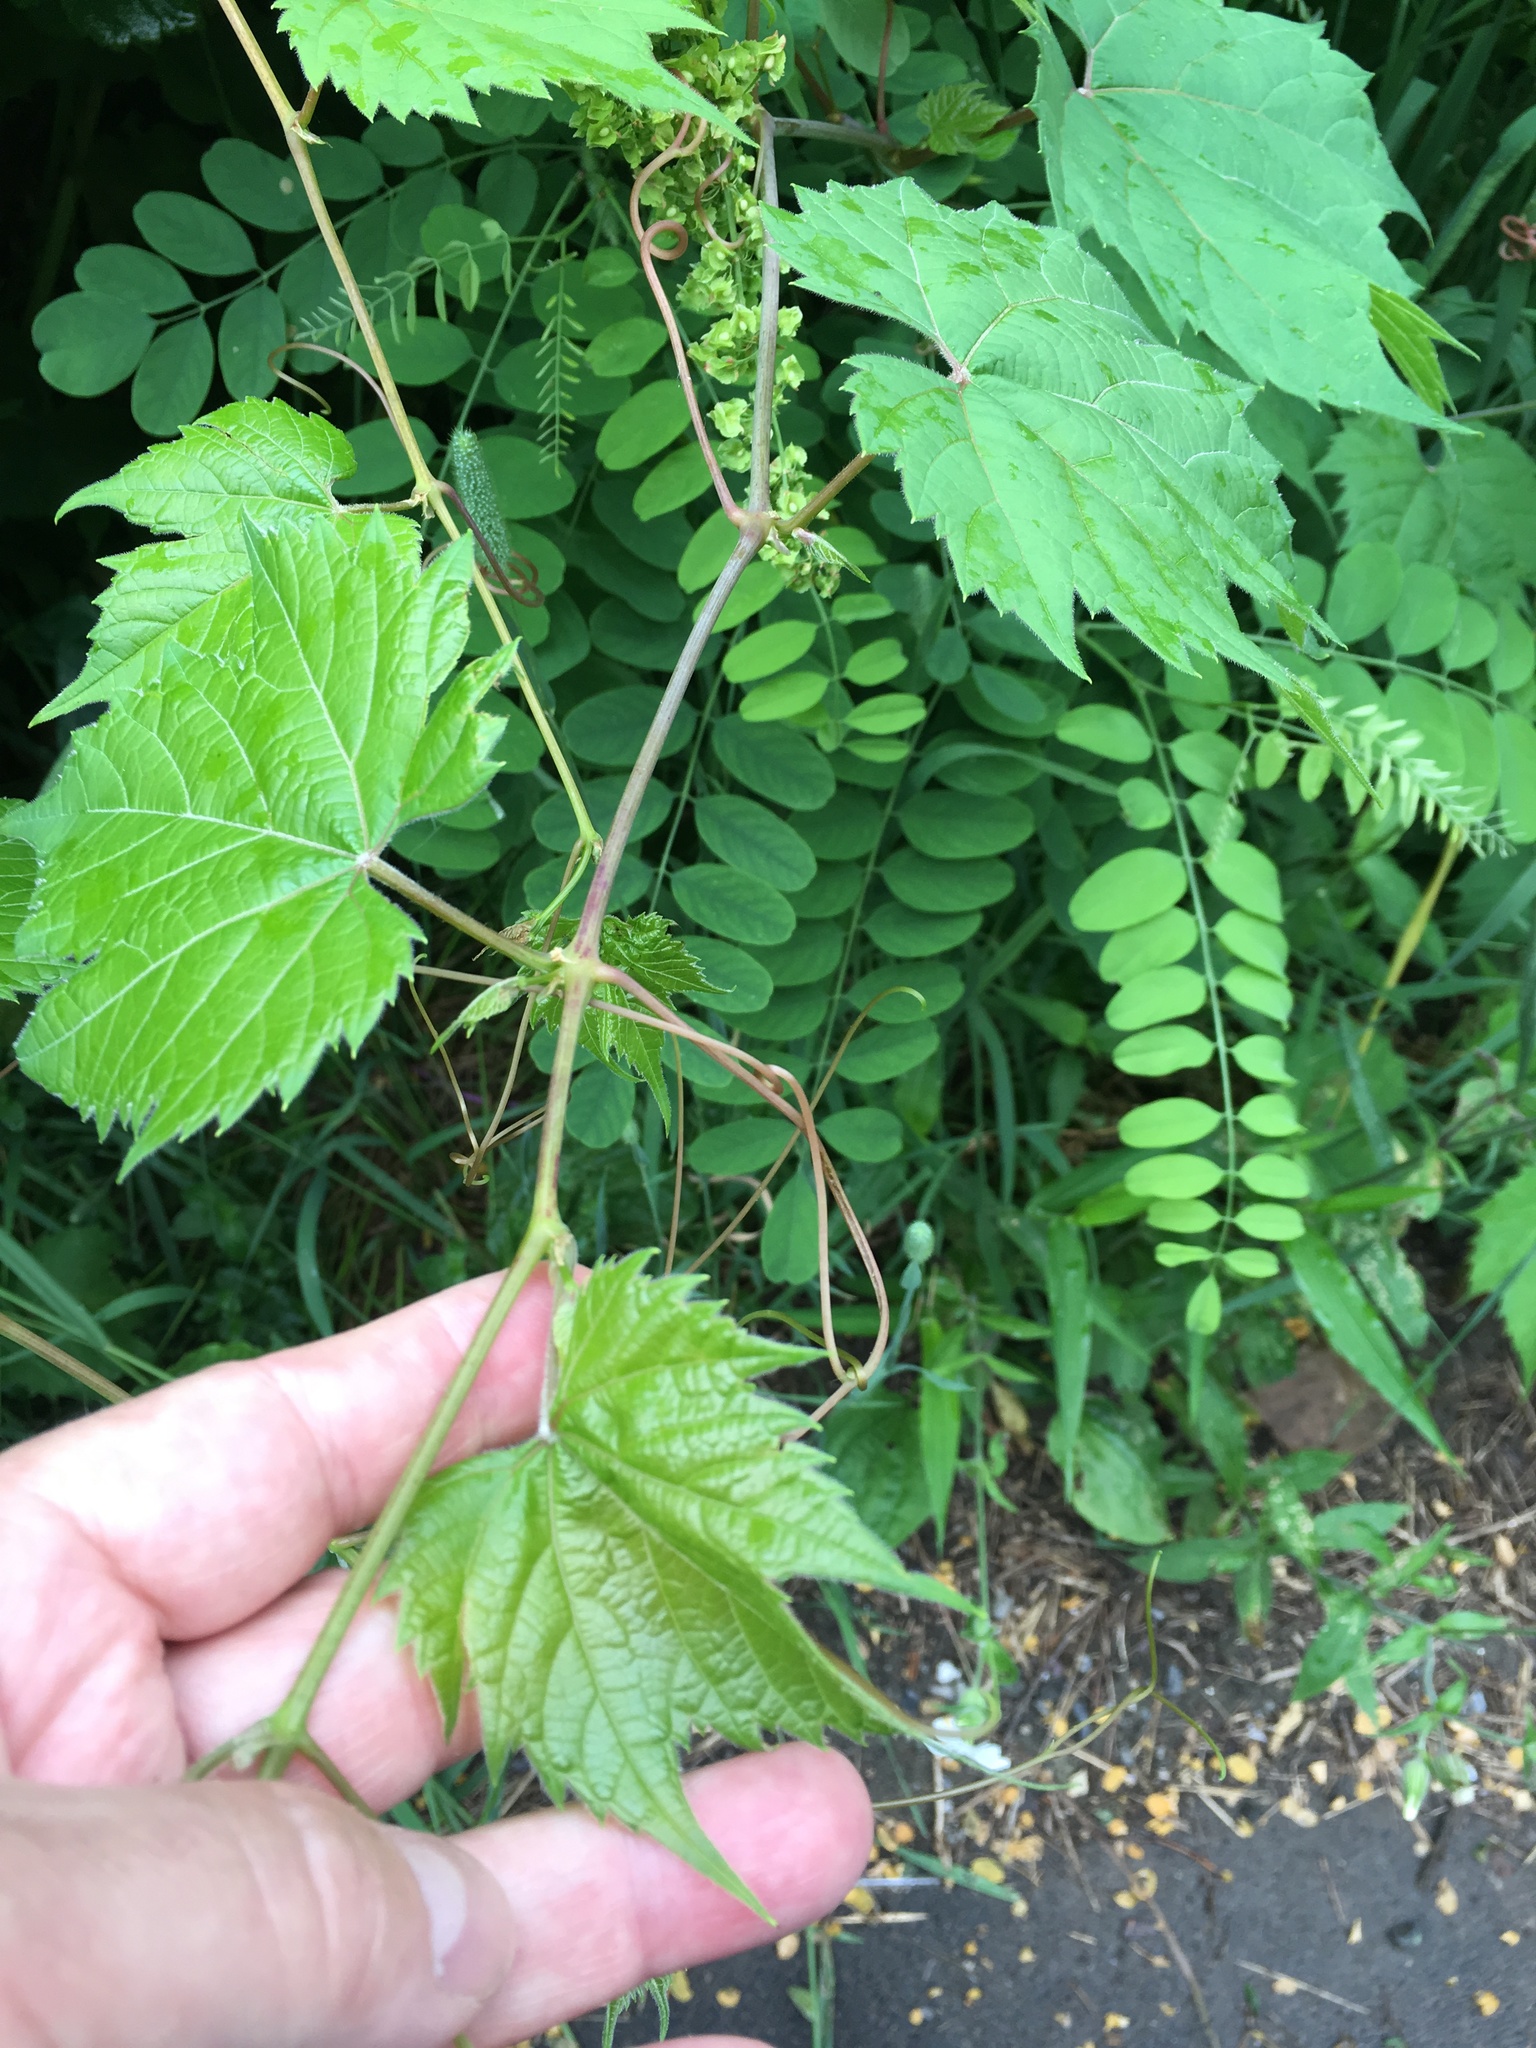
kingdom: Plantae
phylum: Tracheophyta
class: Magnoliopsida
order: Vitales
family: Vitaceae
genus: Vitis
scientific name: Vitis riparia
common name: Frost grape
